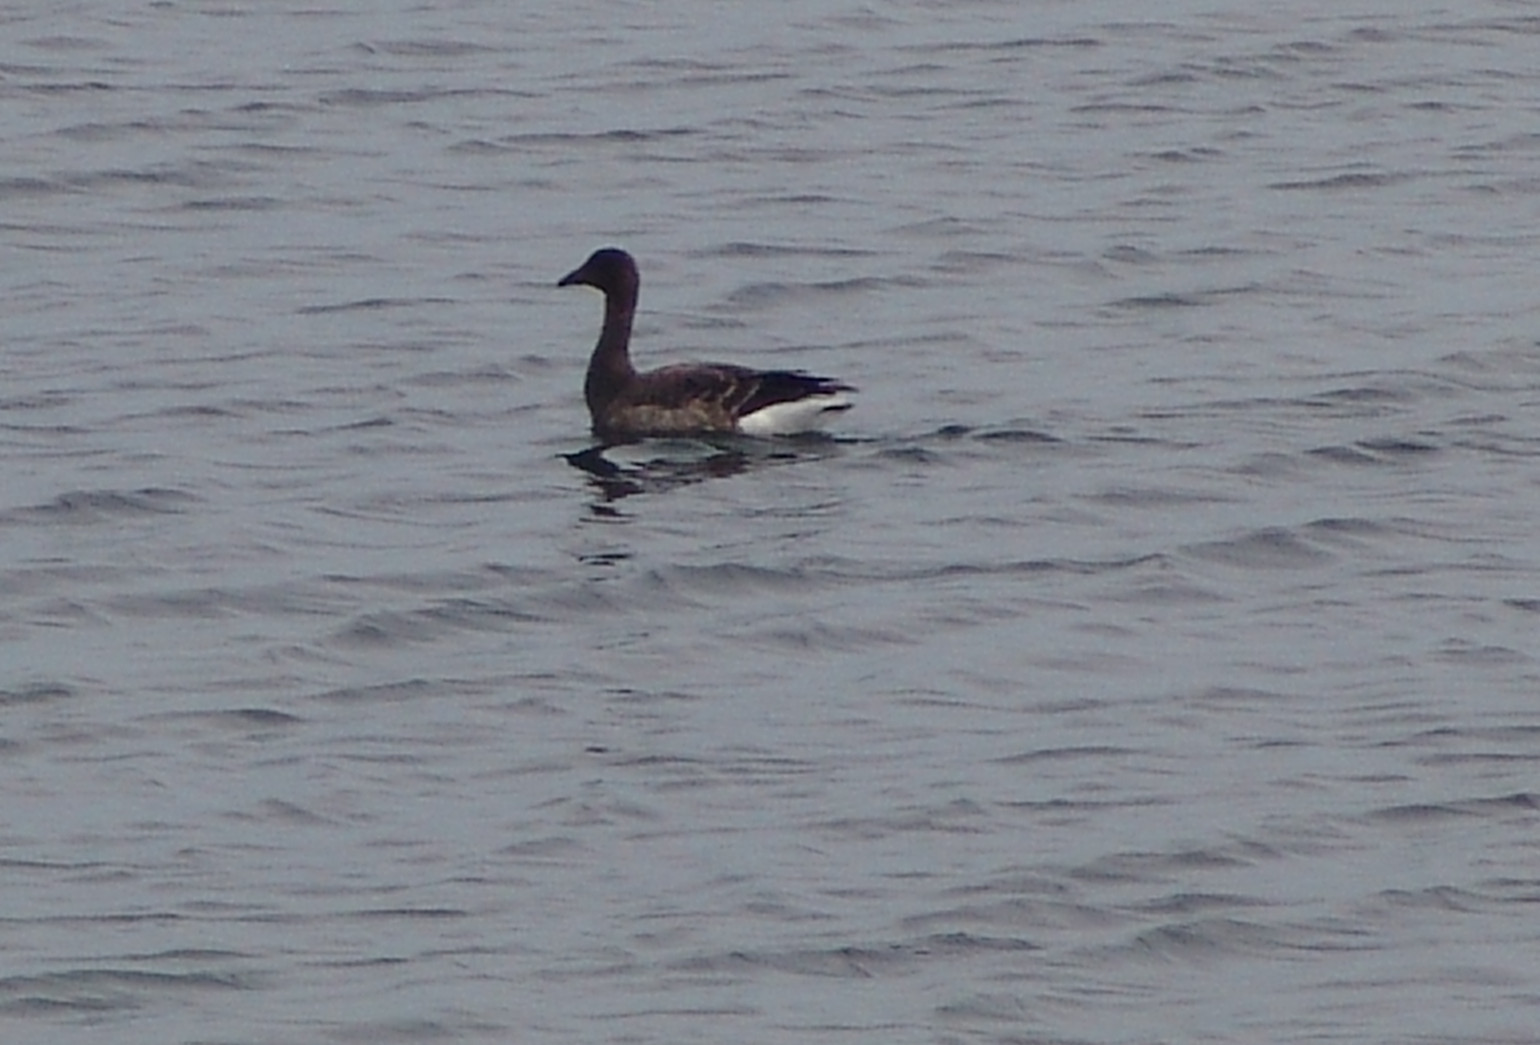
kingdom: Animalia
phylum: Chordata
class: Aves
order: Anseriformes
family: Anatidae
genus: Branta
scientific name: Branta bernicla
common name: Brant goose
